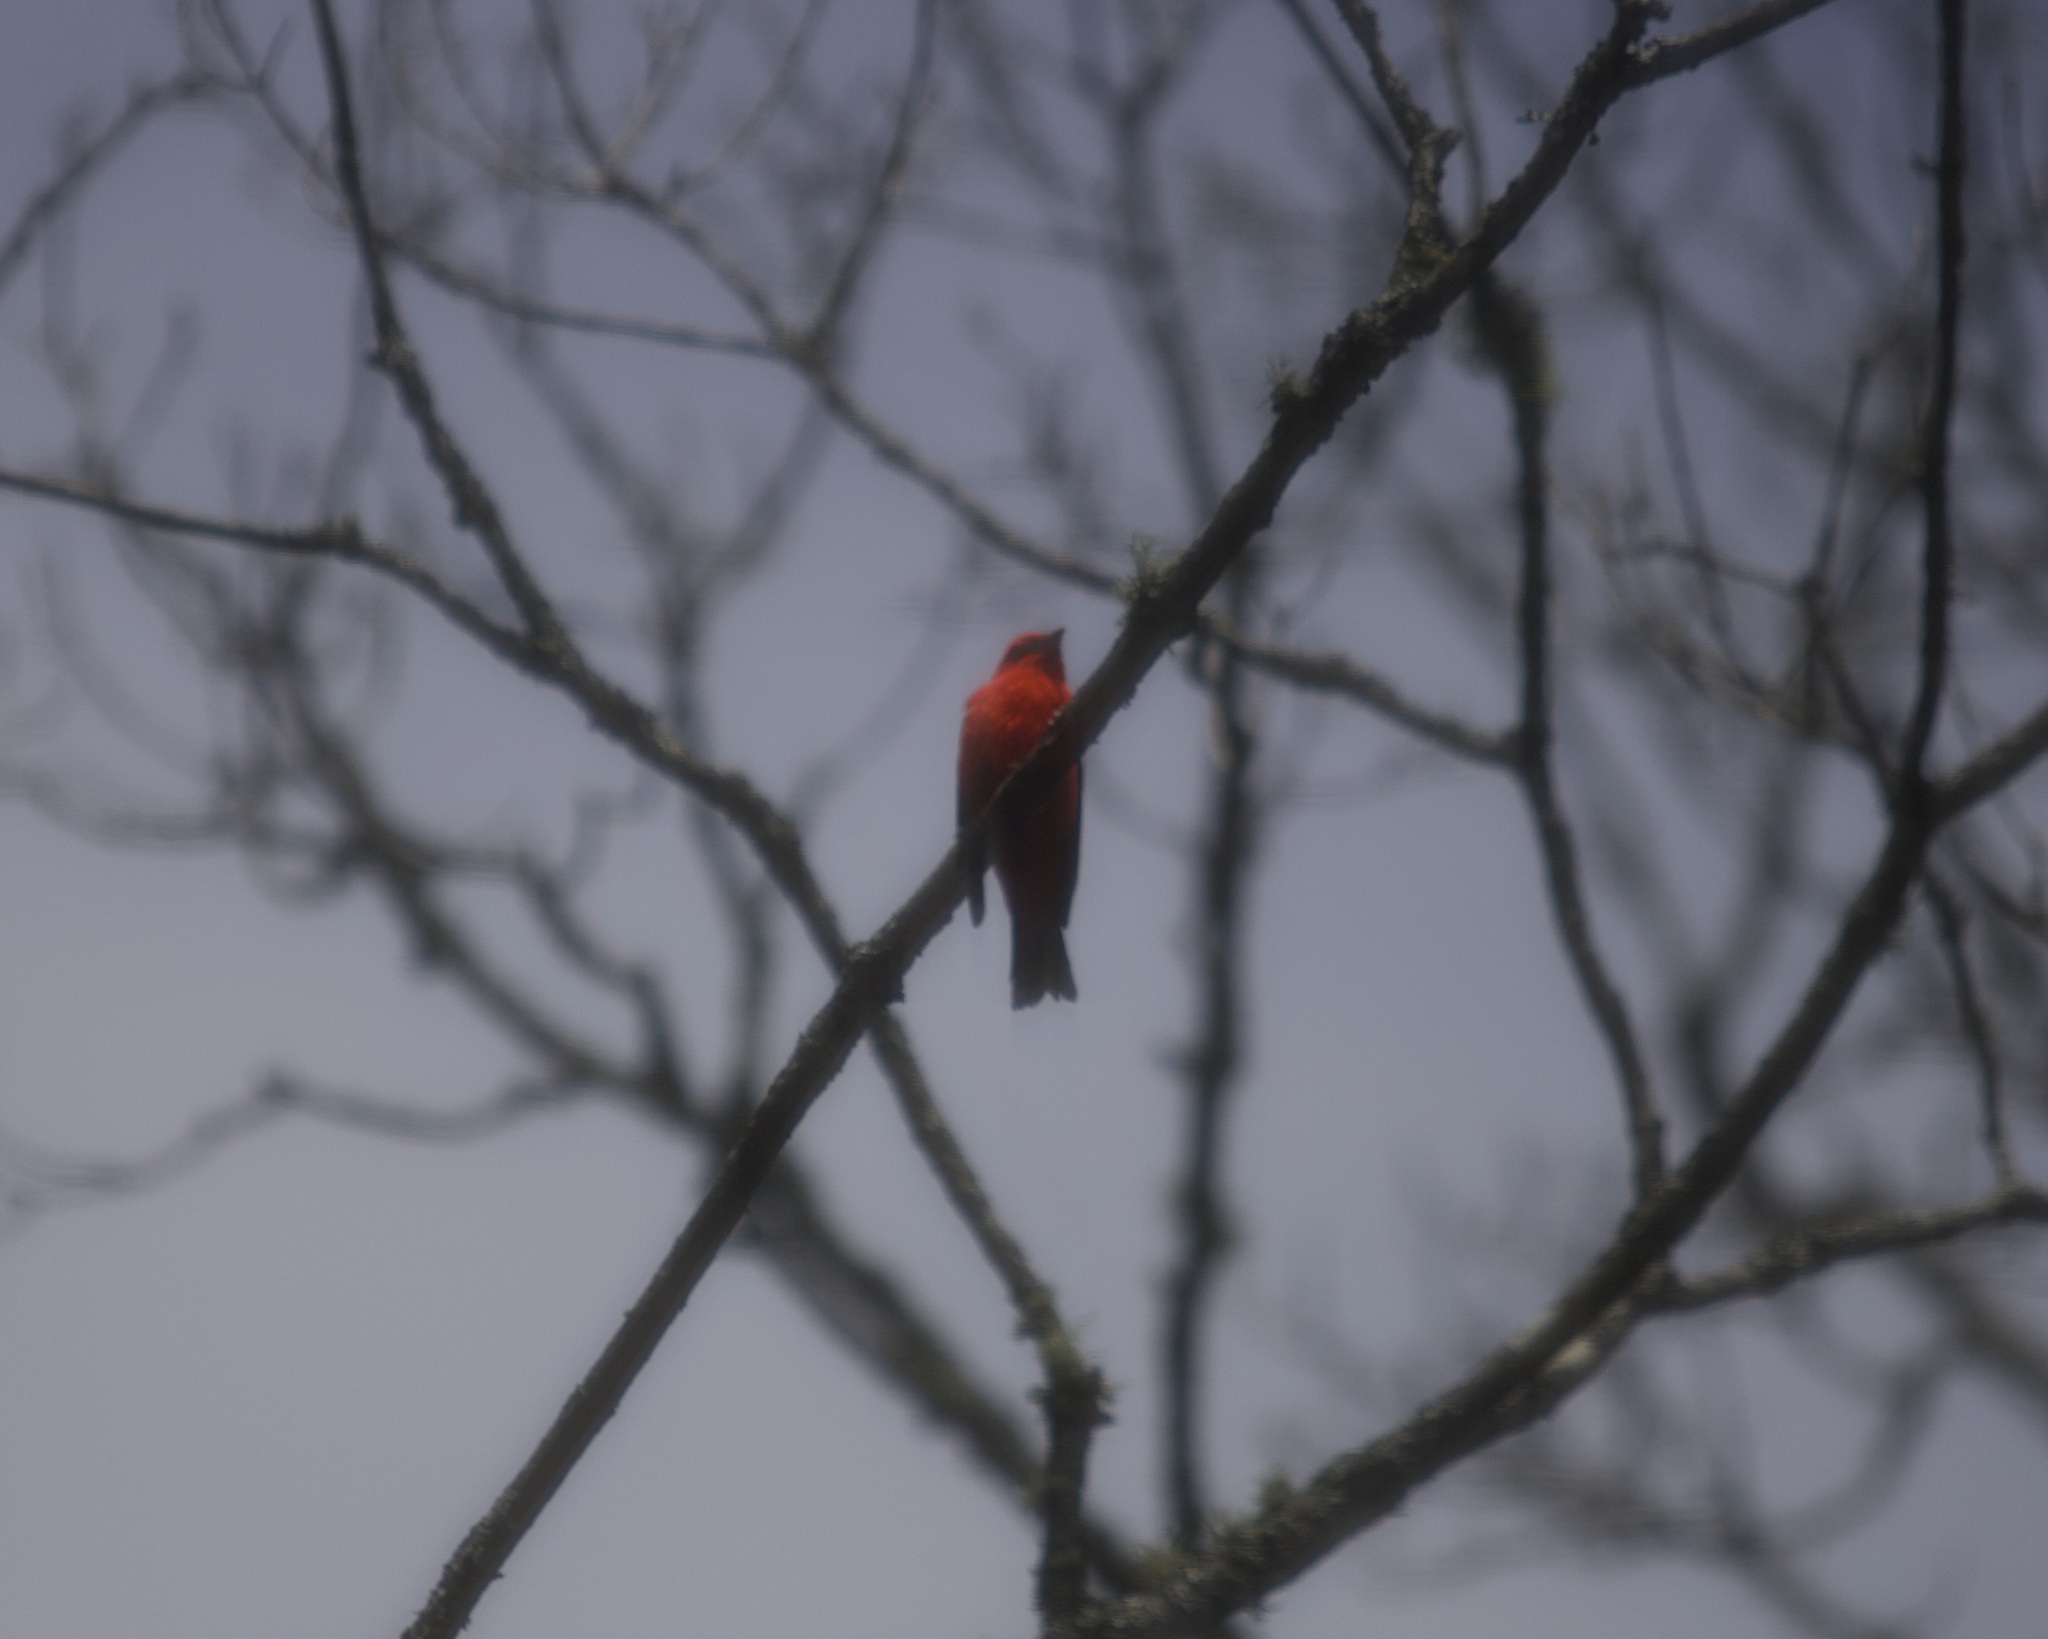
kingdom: Animalia
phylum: Chordata
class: Aves
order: Passeriformes
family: Cardinalidae
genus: Piranga
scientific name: Piranga olivacea
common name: Scarlet tanager
